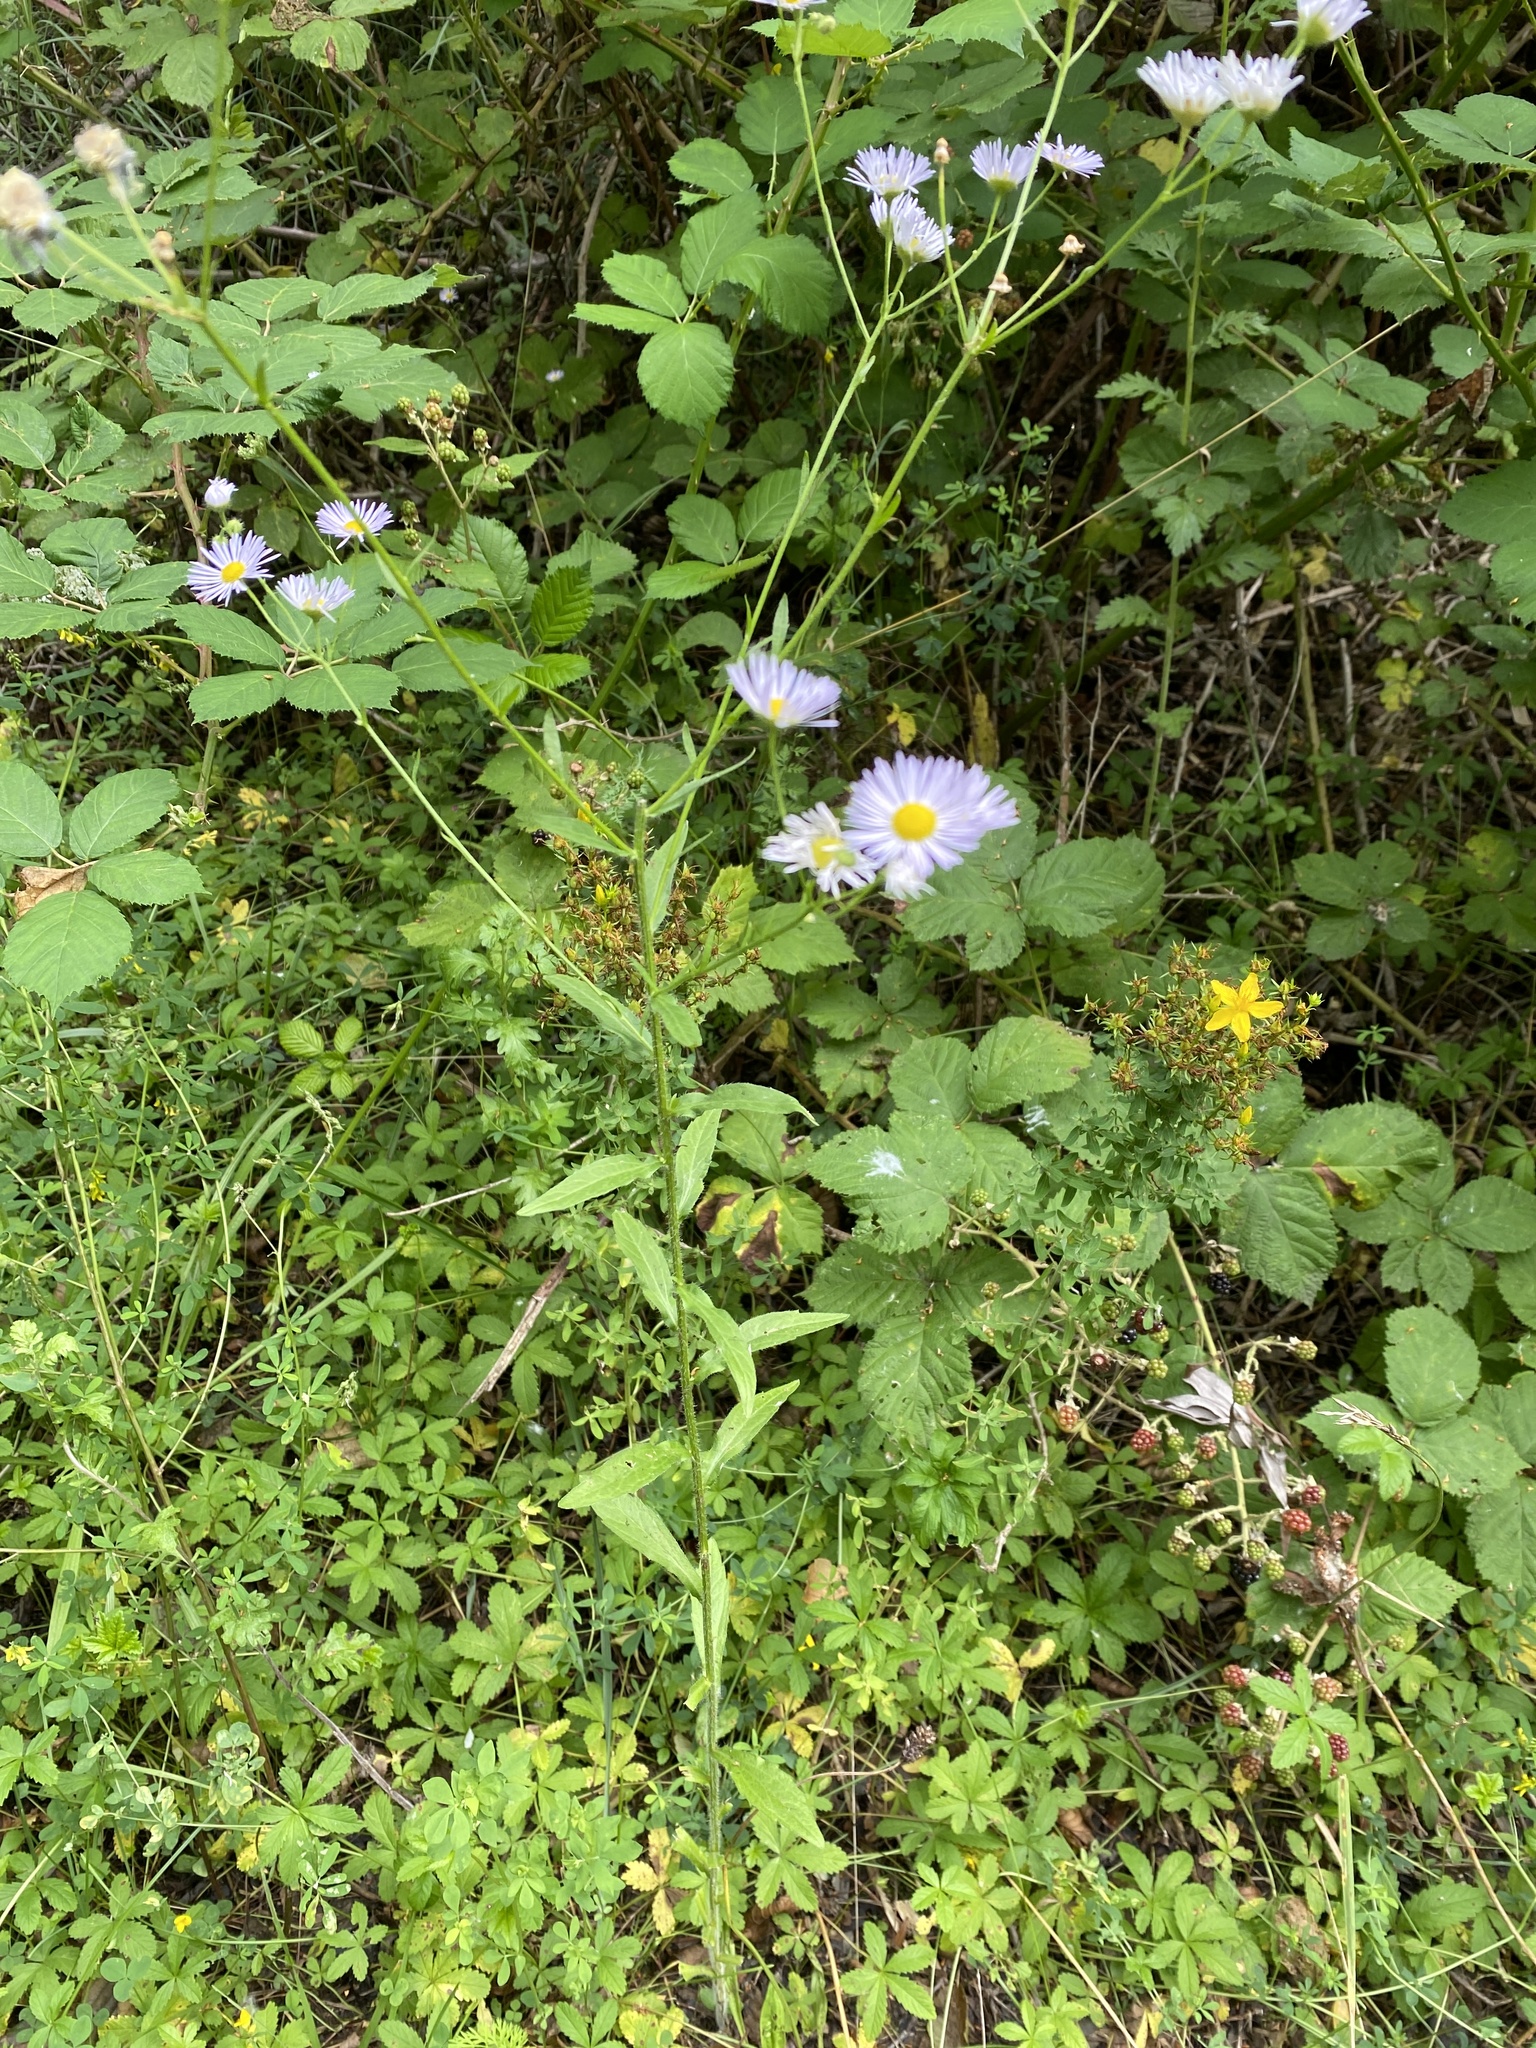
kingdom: Plantae
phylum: Tracheophyta
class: Magnoliopsida
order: Asterales
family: Asteraceae
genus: Erigeron
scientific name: Erigeron annuus
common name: Tall fleabane
